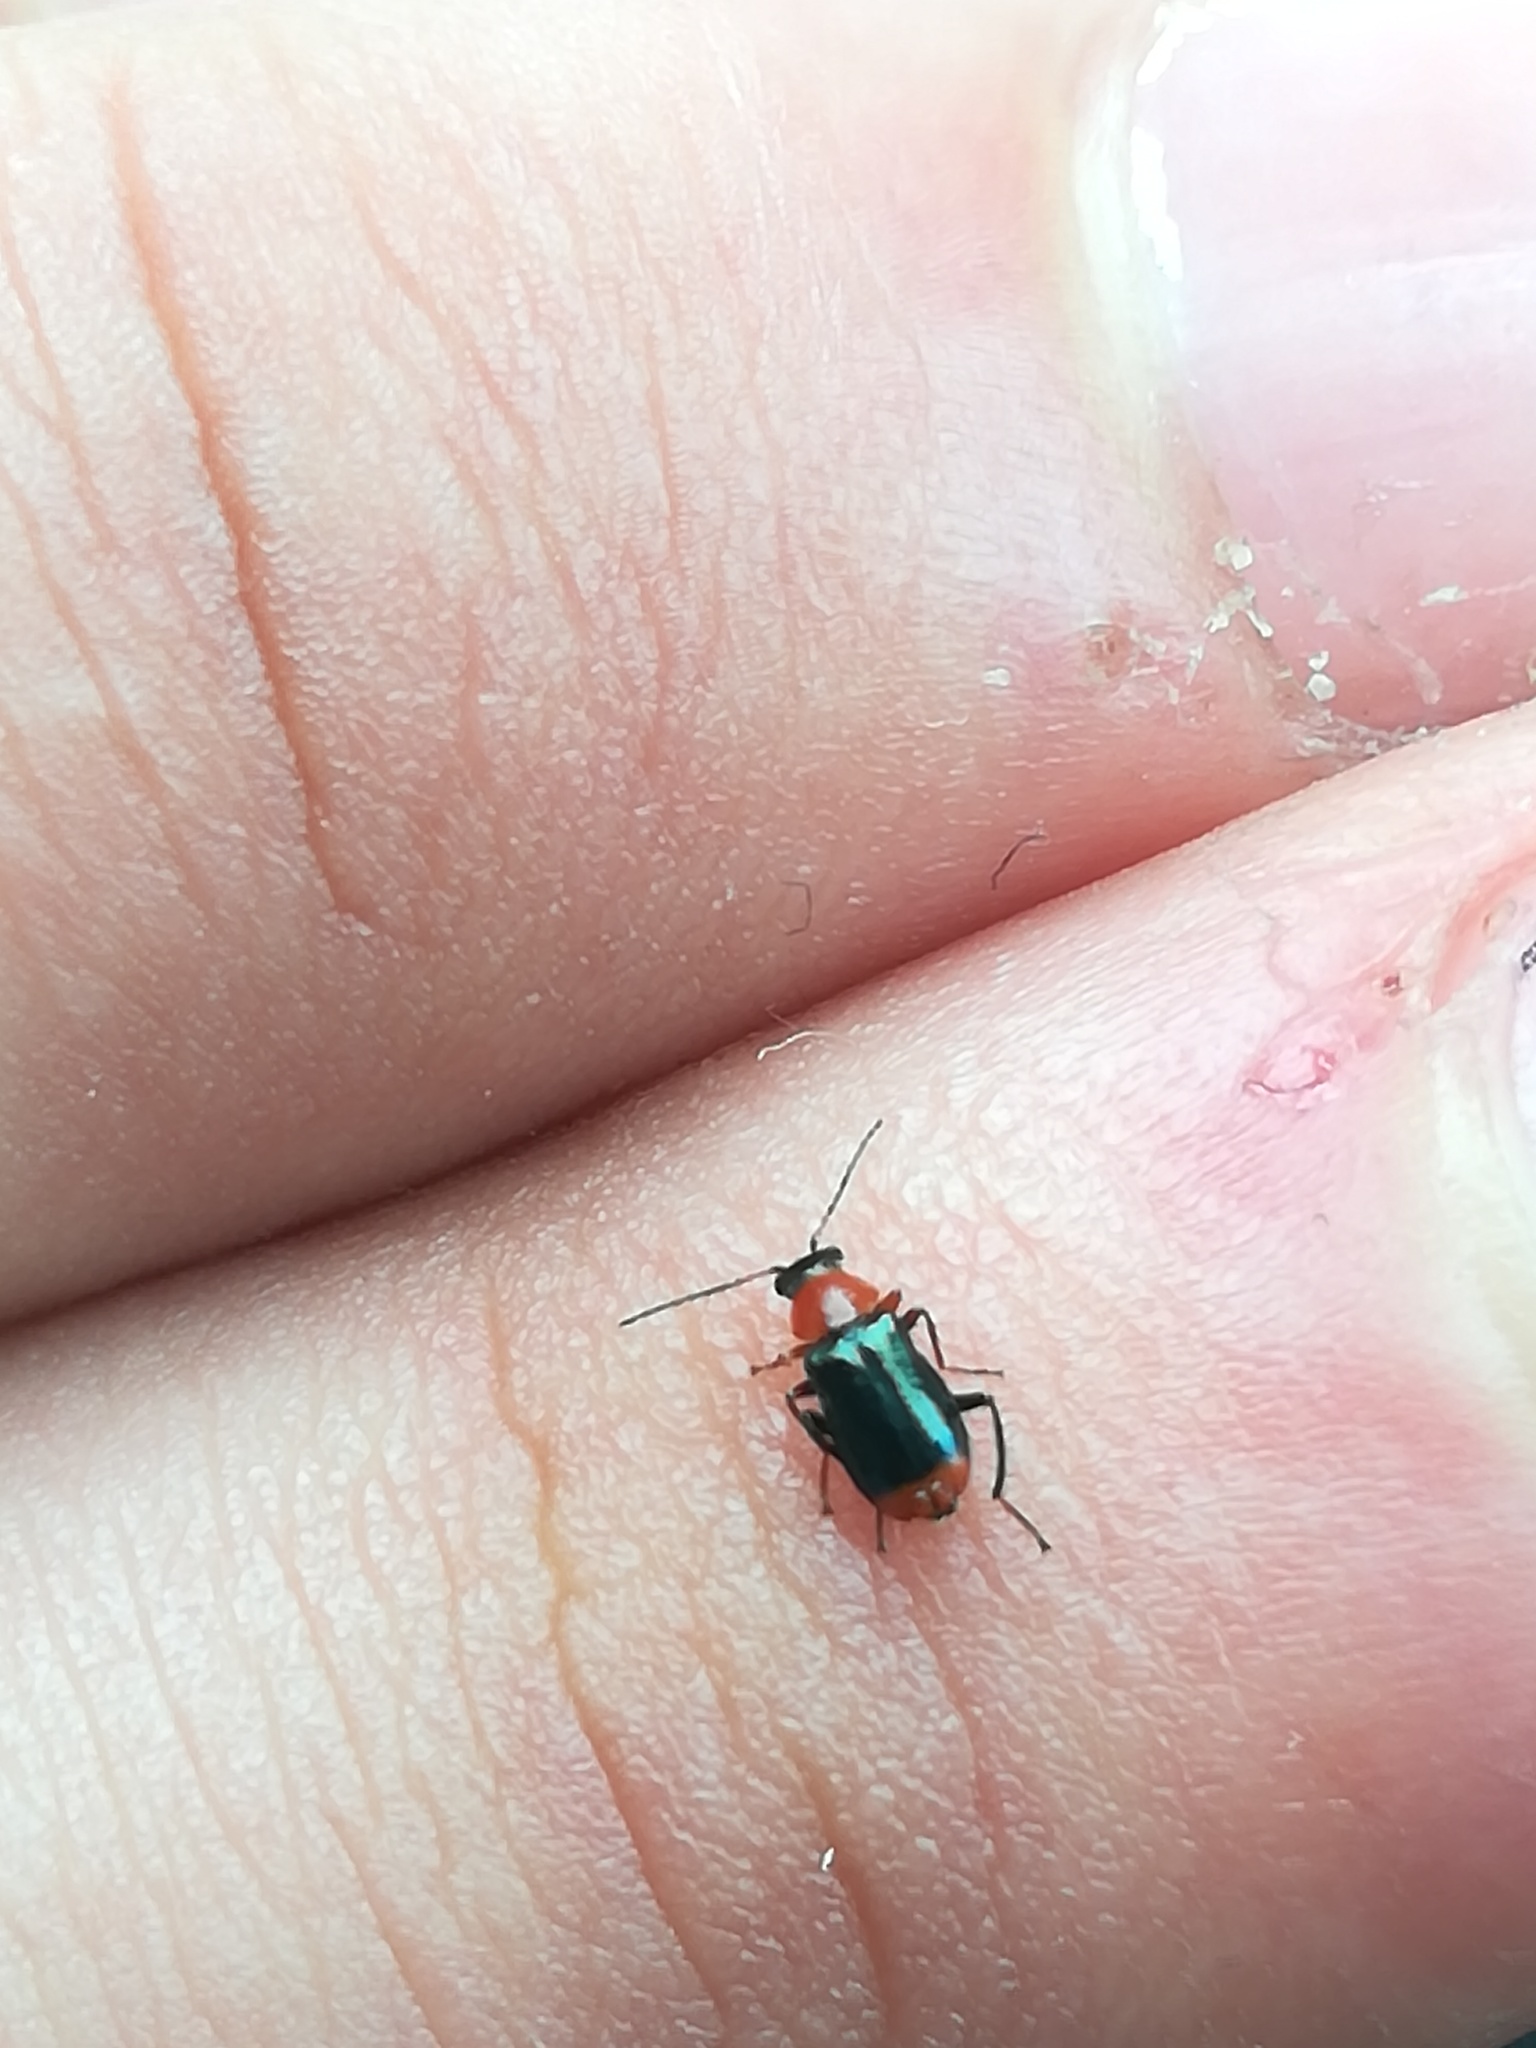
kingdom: Animalia
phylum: Arthropoda
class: Insecta
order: Coleoptera
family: Malachiidae
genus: Ebaeus
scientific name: Ebaeus battonii
